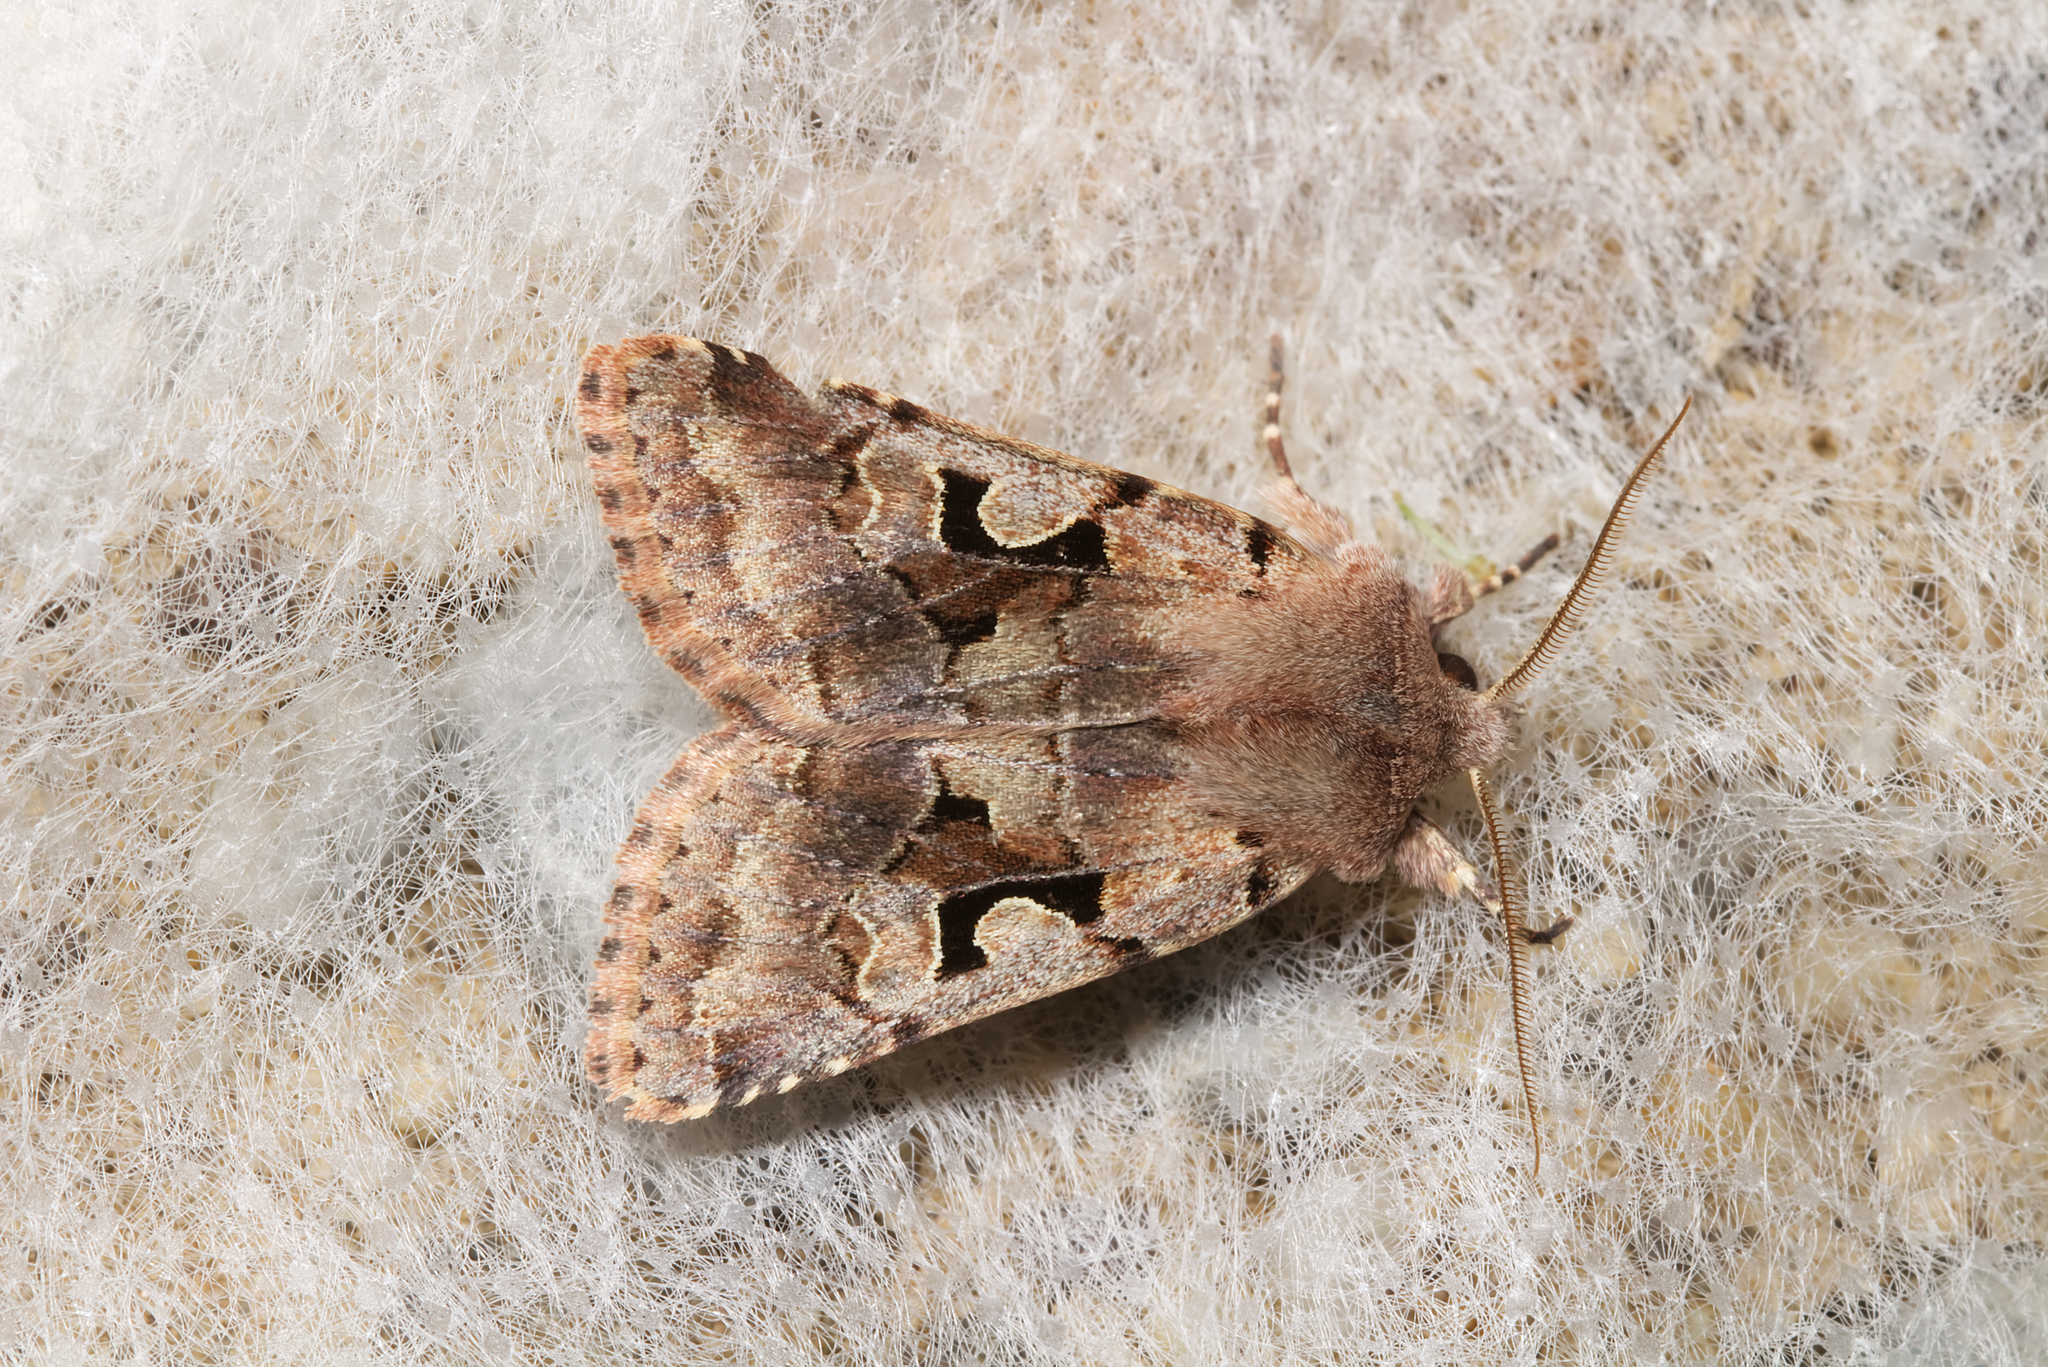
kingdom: Animalia
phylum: Arthropoda
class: Insecta
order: Lepidoptera
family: Noctuidae
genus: Orthosia
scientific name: Orthosia gothica
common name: Hebrew character
